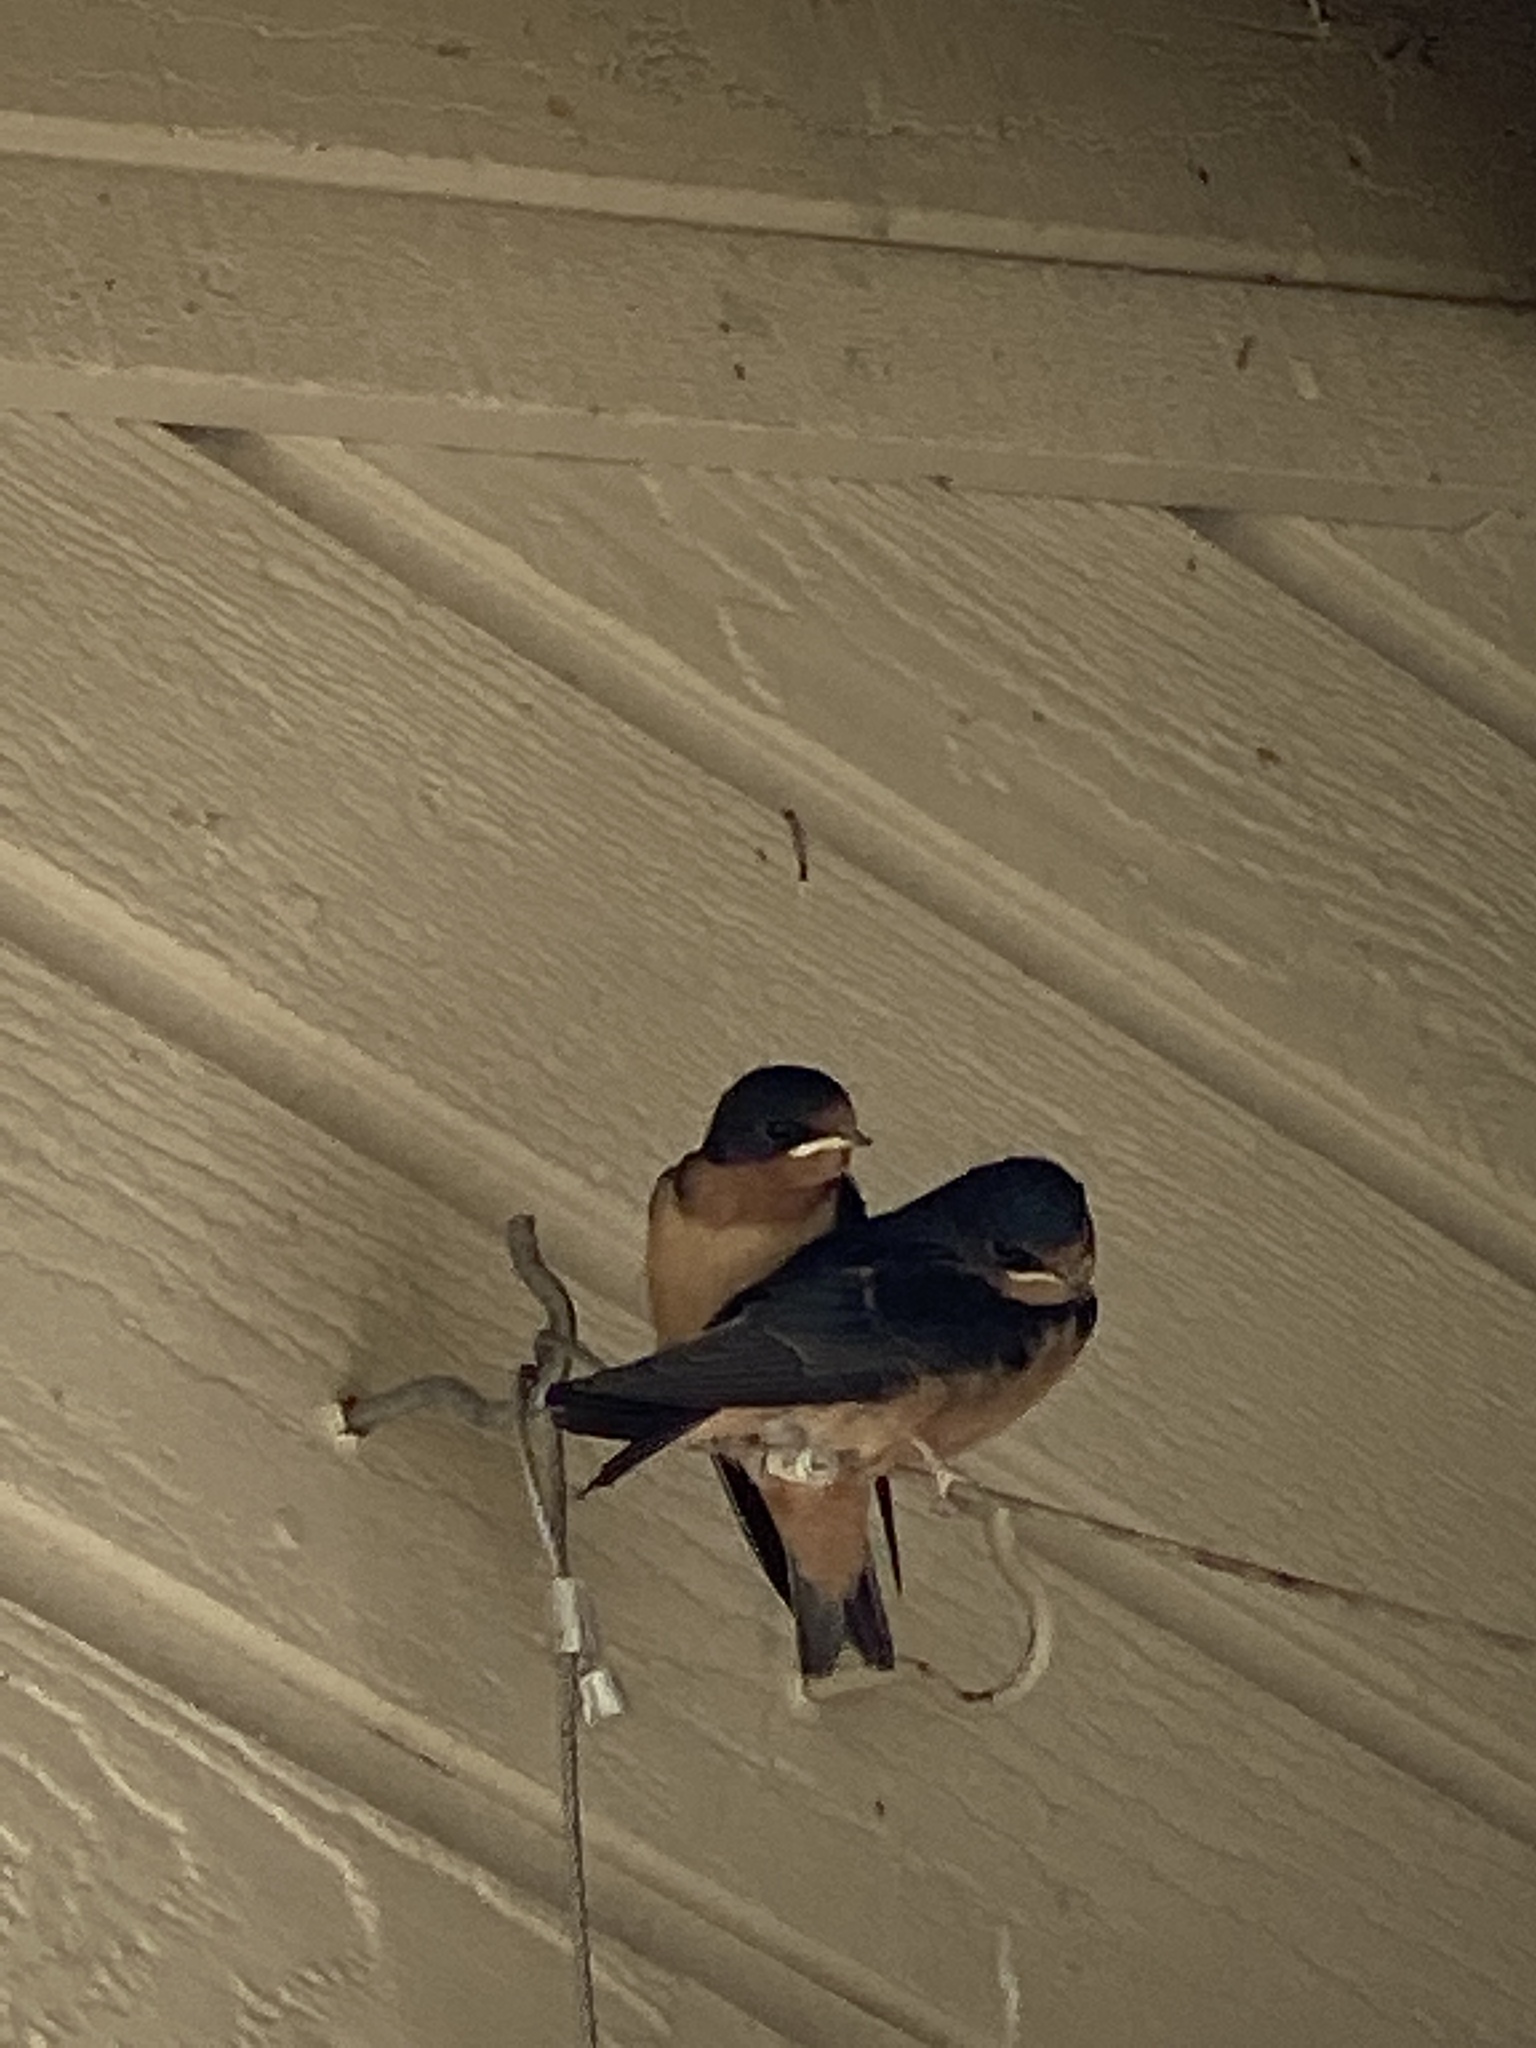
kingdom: Animalia
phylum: Chordata
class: Aves
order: Passeriformes
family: Hirundinidae
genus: Hirundo
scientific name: Hirundo rustica
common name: Barn swallow
